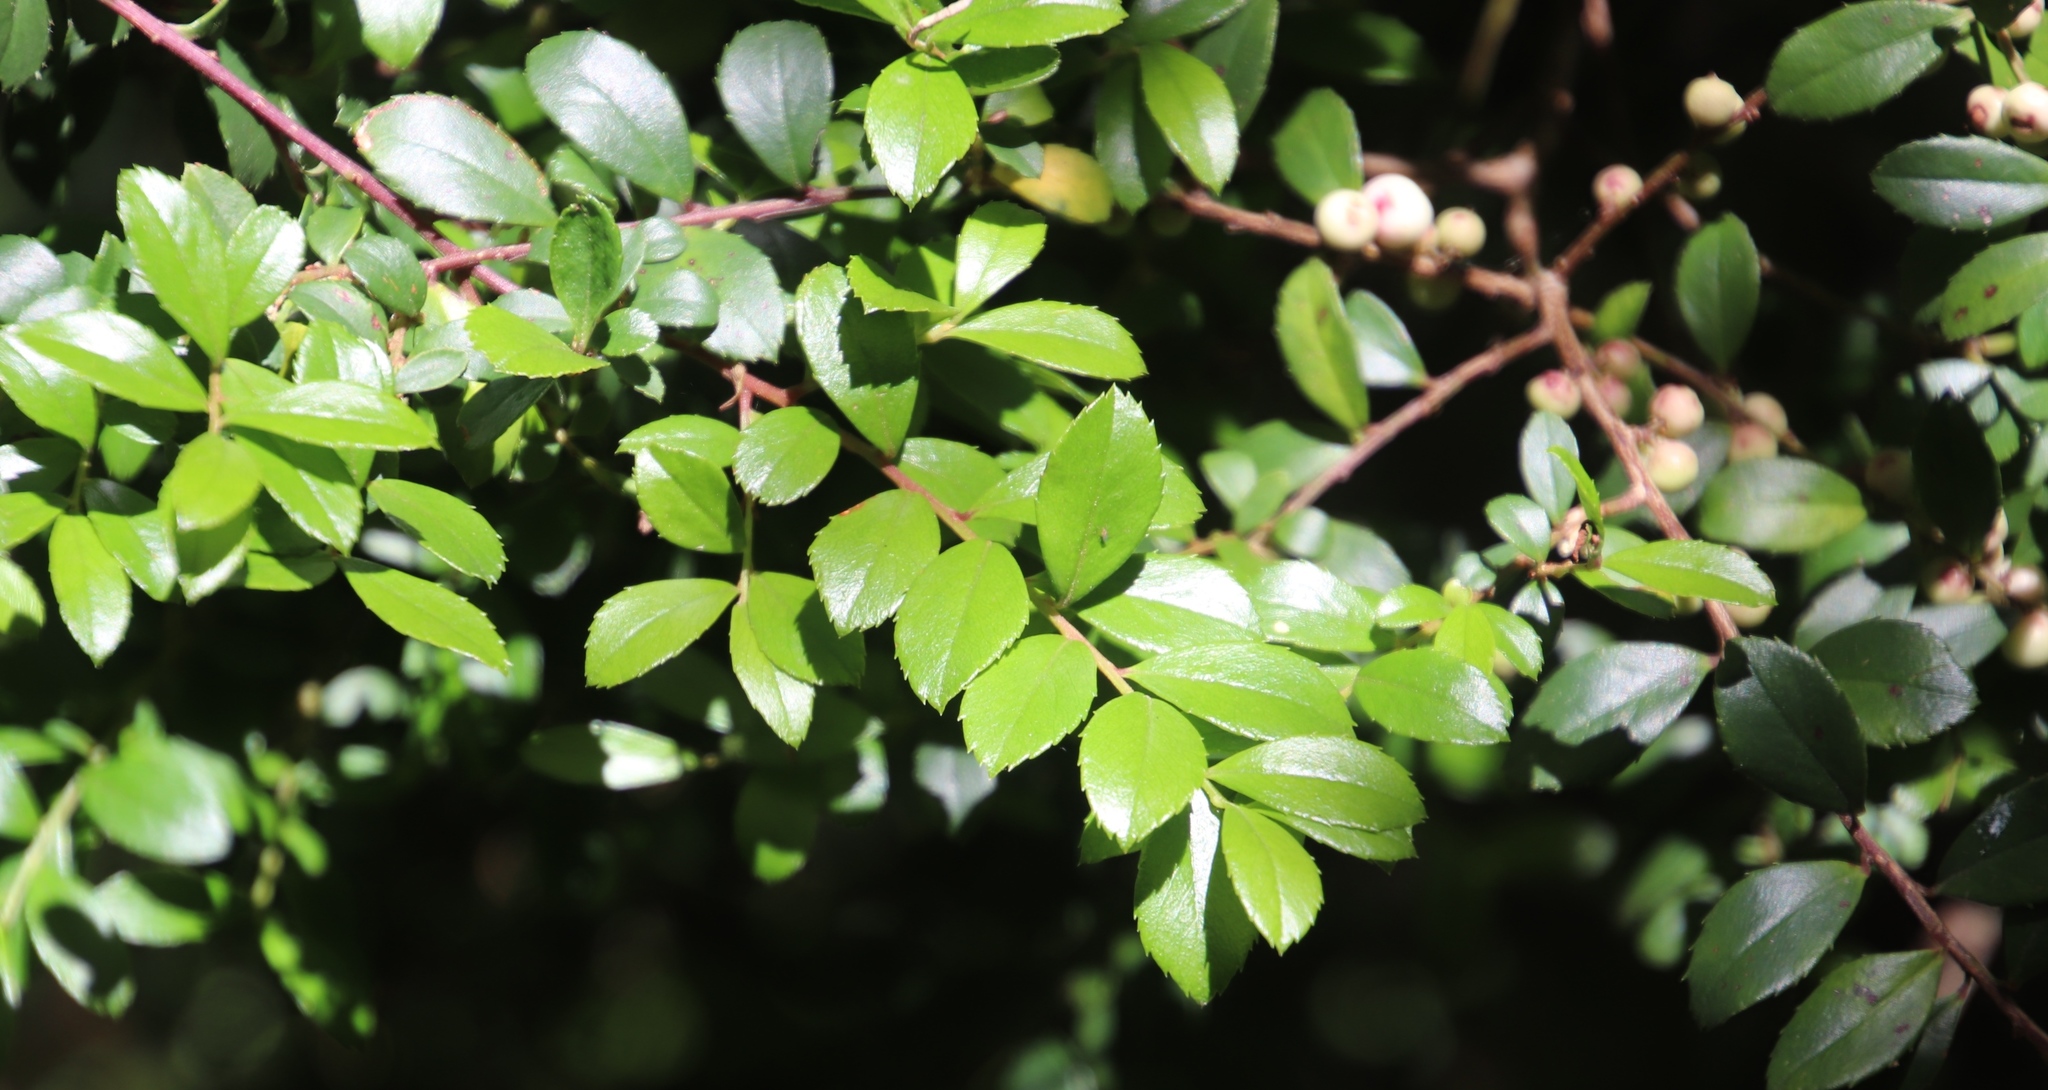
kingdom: Plantae
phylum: Tracheophyta
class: Magnoliopsida
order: Ericales
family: Primulaceae
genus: Myrsine
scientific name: Myrsine africana
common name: African-boxwood
